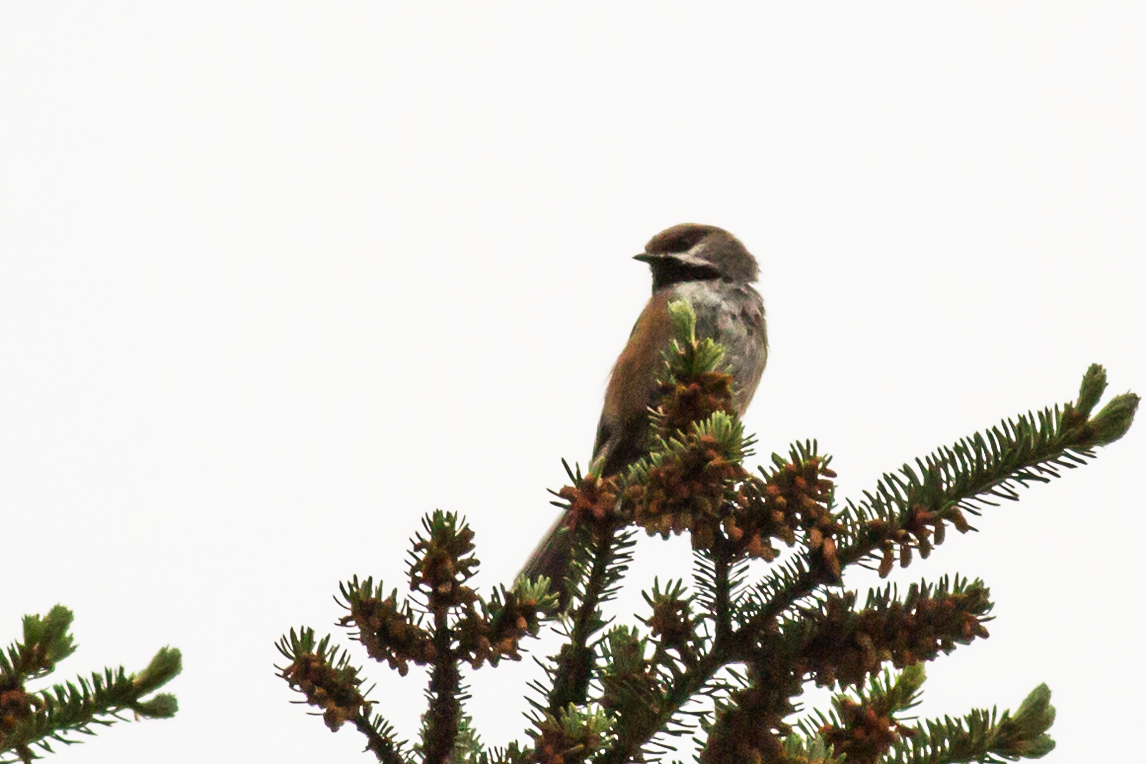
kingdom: Animalia
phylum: Chordata
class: Aves
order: Passeriformes
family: Paridae
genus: Poecile
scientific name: Poecile hudsonicus
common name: Boreal chickadee
